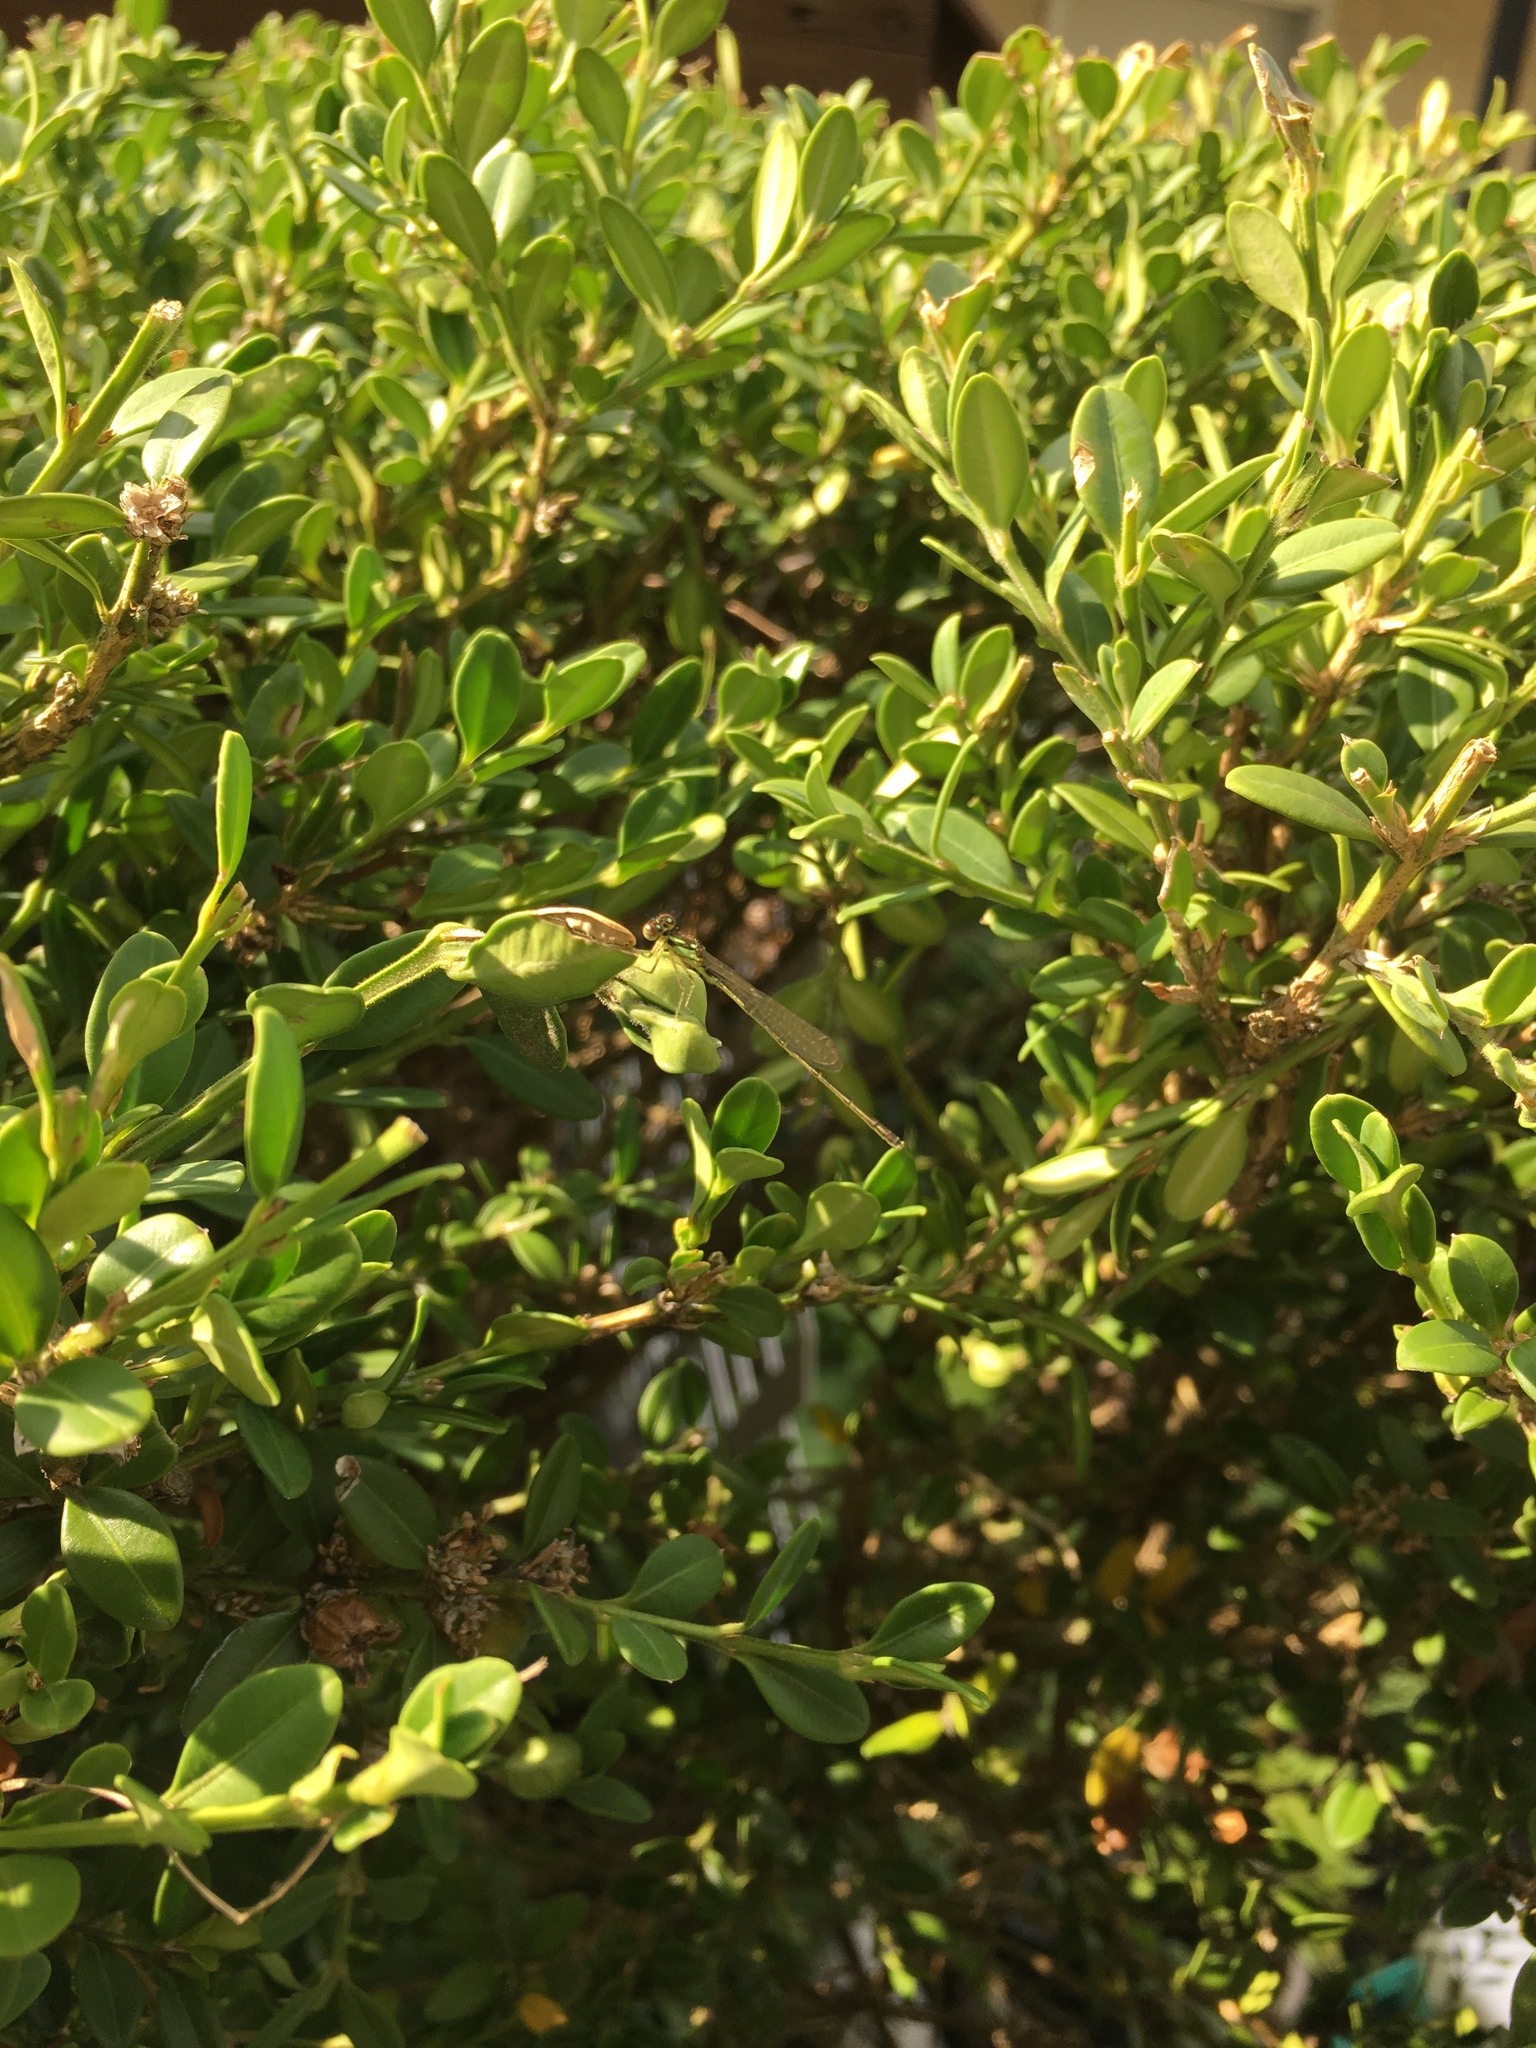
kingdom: Animalia
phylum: Arthropoda
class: Insecta
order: Odonata
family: Coenagrionidae
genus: Ischnura
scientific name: Ischnura posita
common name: Fragile forktail
